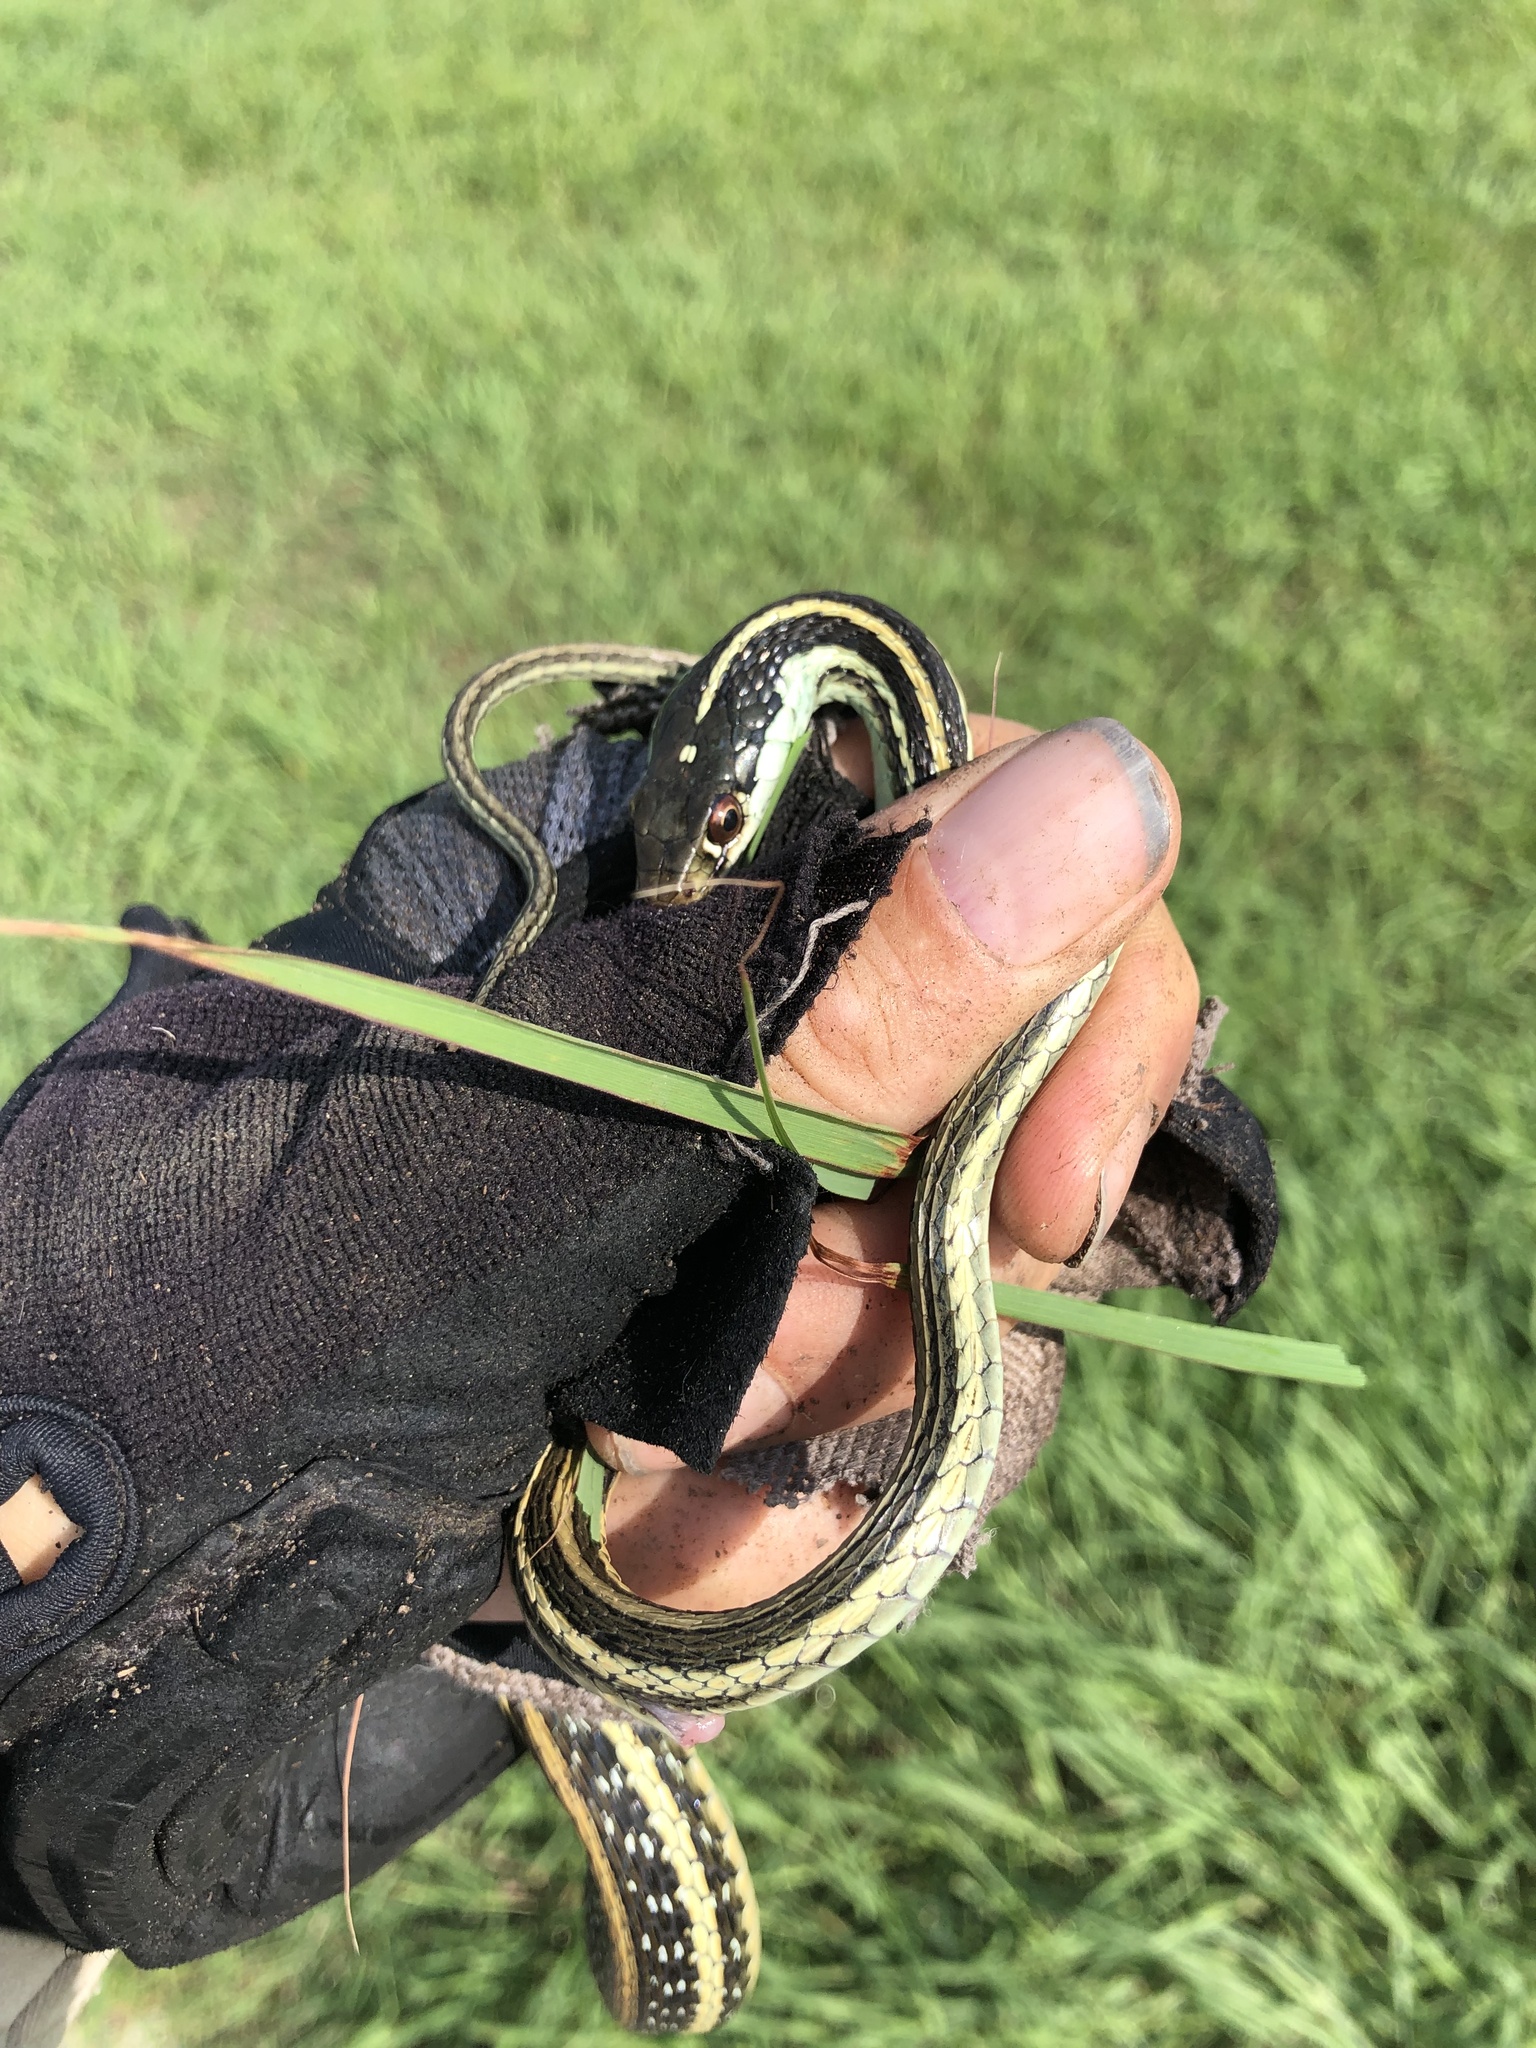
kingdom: Animalia
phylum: Chordata
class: Squamata
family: Colubridae
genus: Thamnophis
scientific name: Thamnophis proximus
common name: Western ribbon snake
